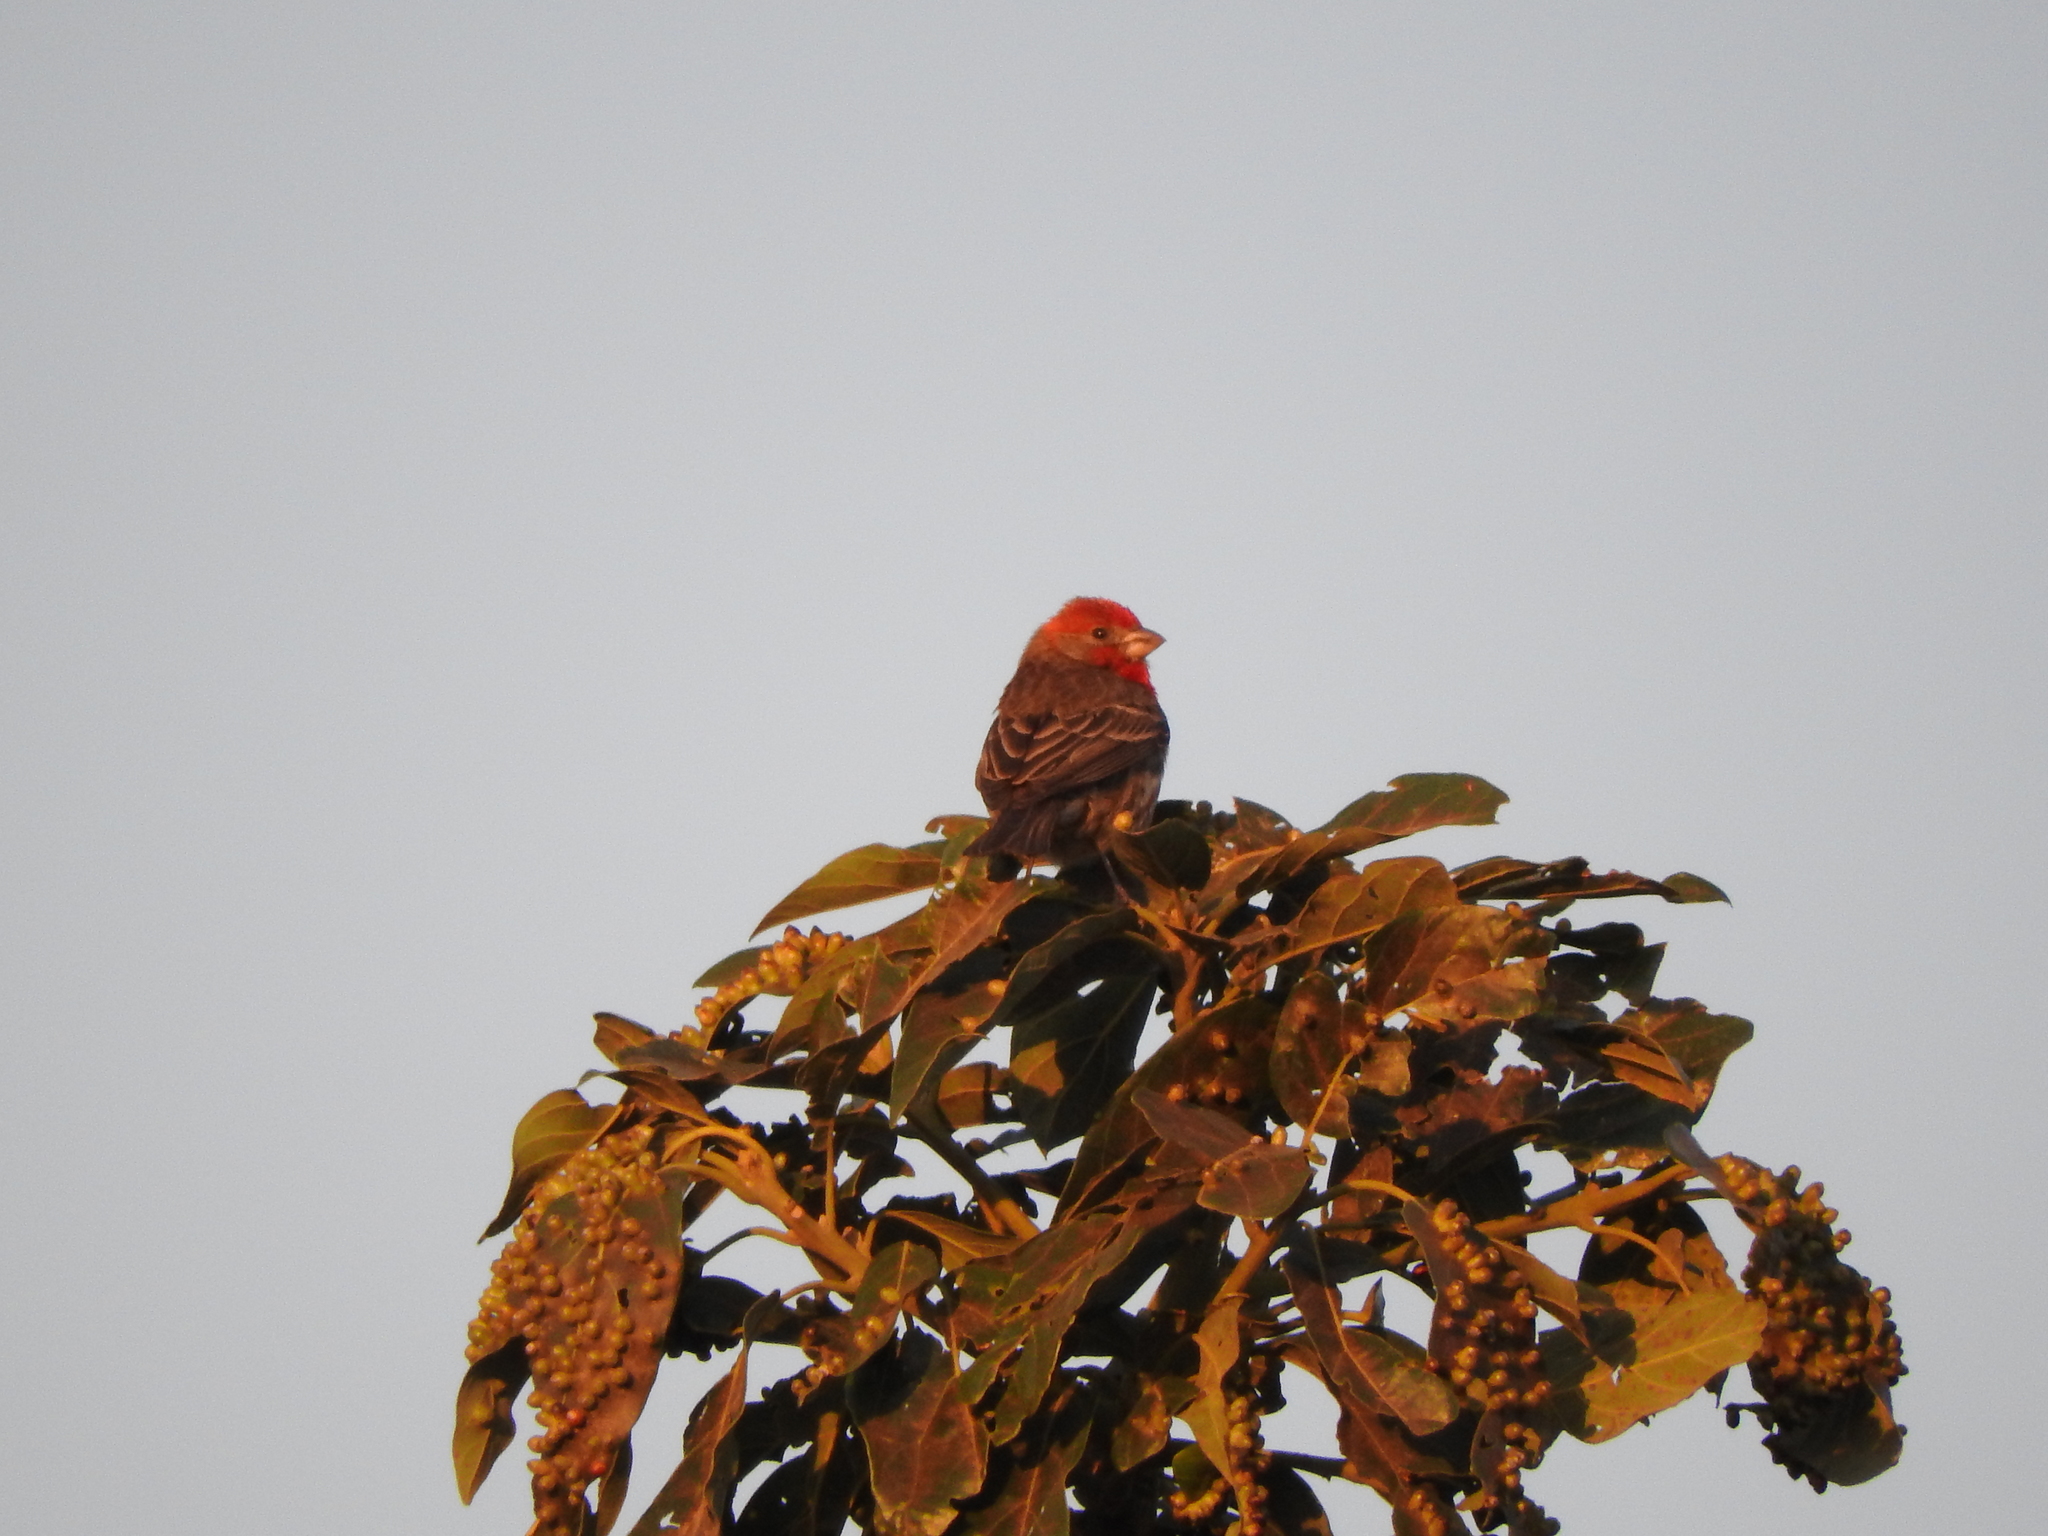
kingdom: Animalia
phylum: Chordata
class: Aves
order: Passeriformes
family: Fringillidae
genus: Haemorhous
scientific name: Haemorhous mexicanus
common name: House finch
